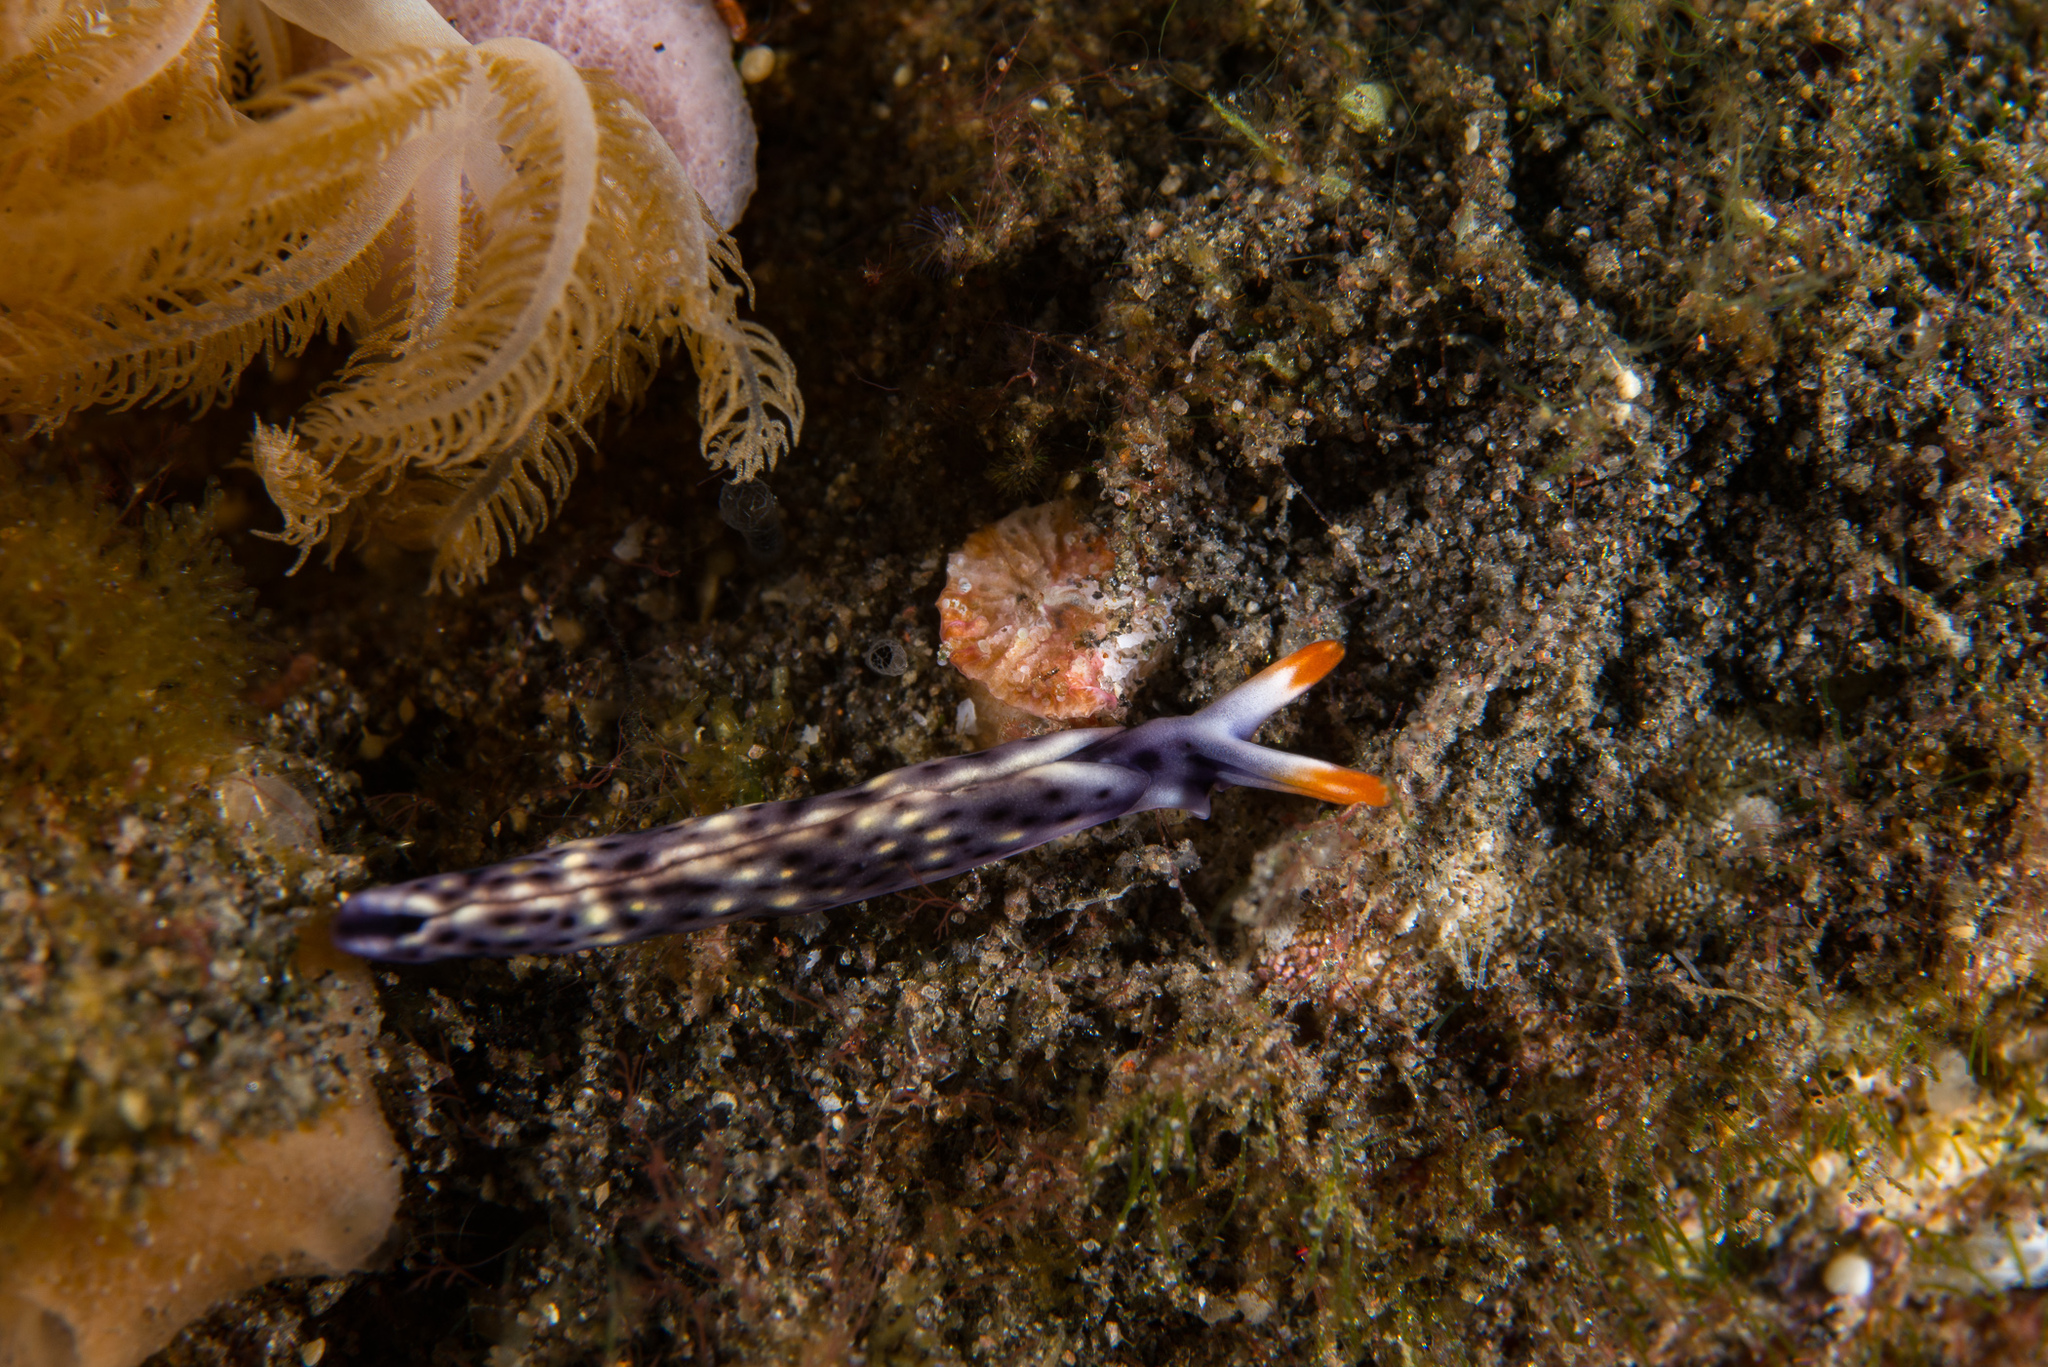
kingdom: Animalia
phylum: Mollusca
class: Gastropoda
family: Plakobranchidae
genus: Thuridilla
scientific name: Thuridilla vataae
